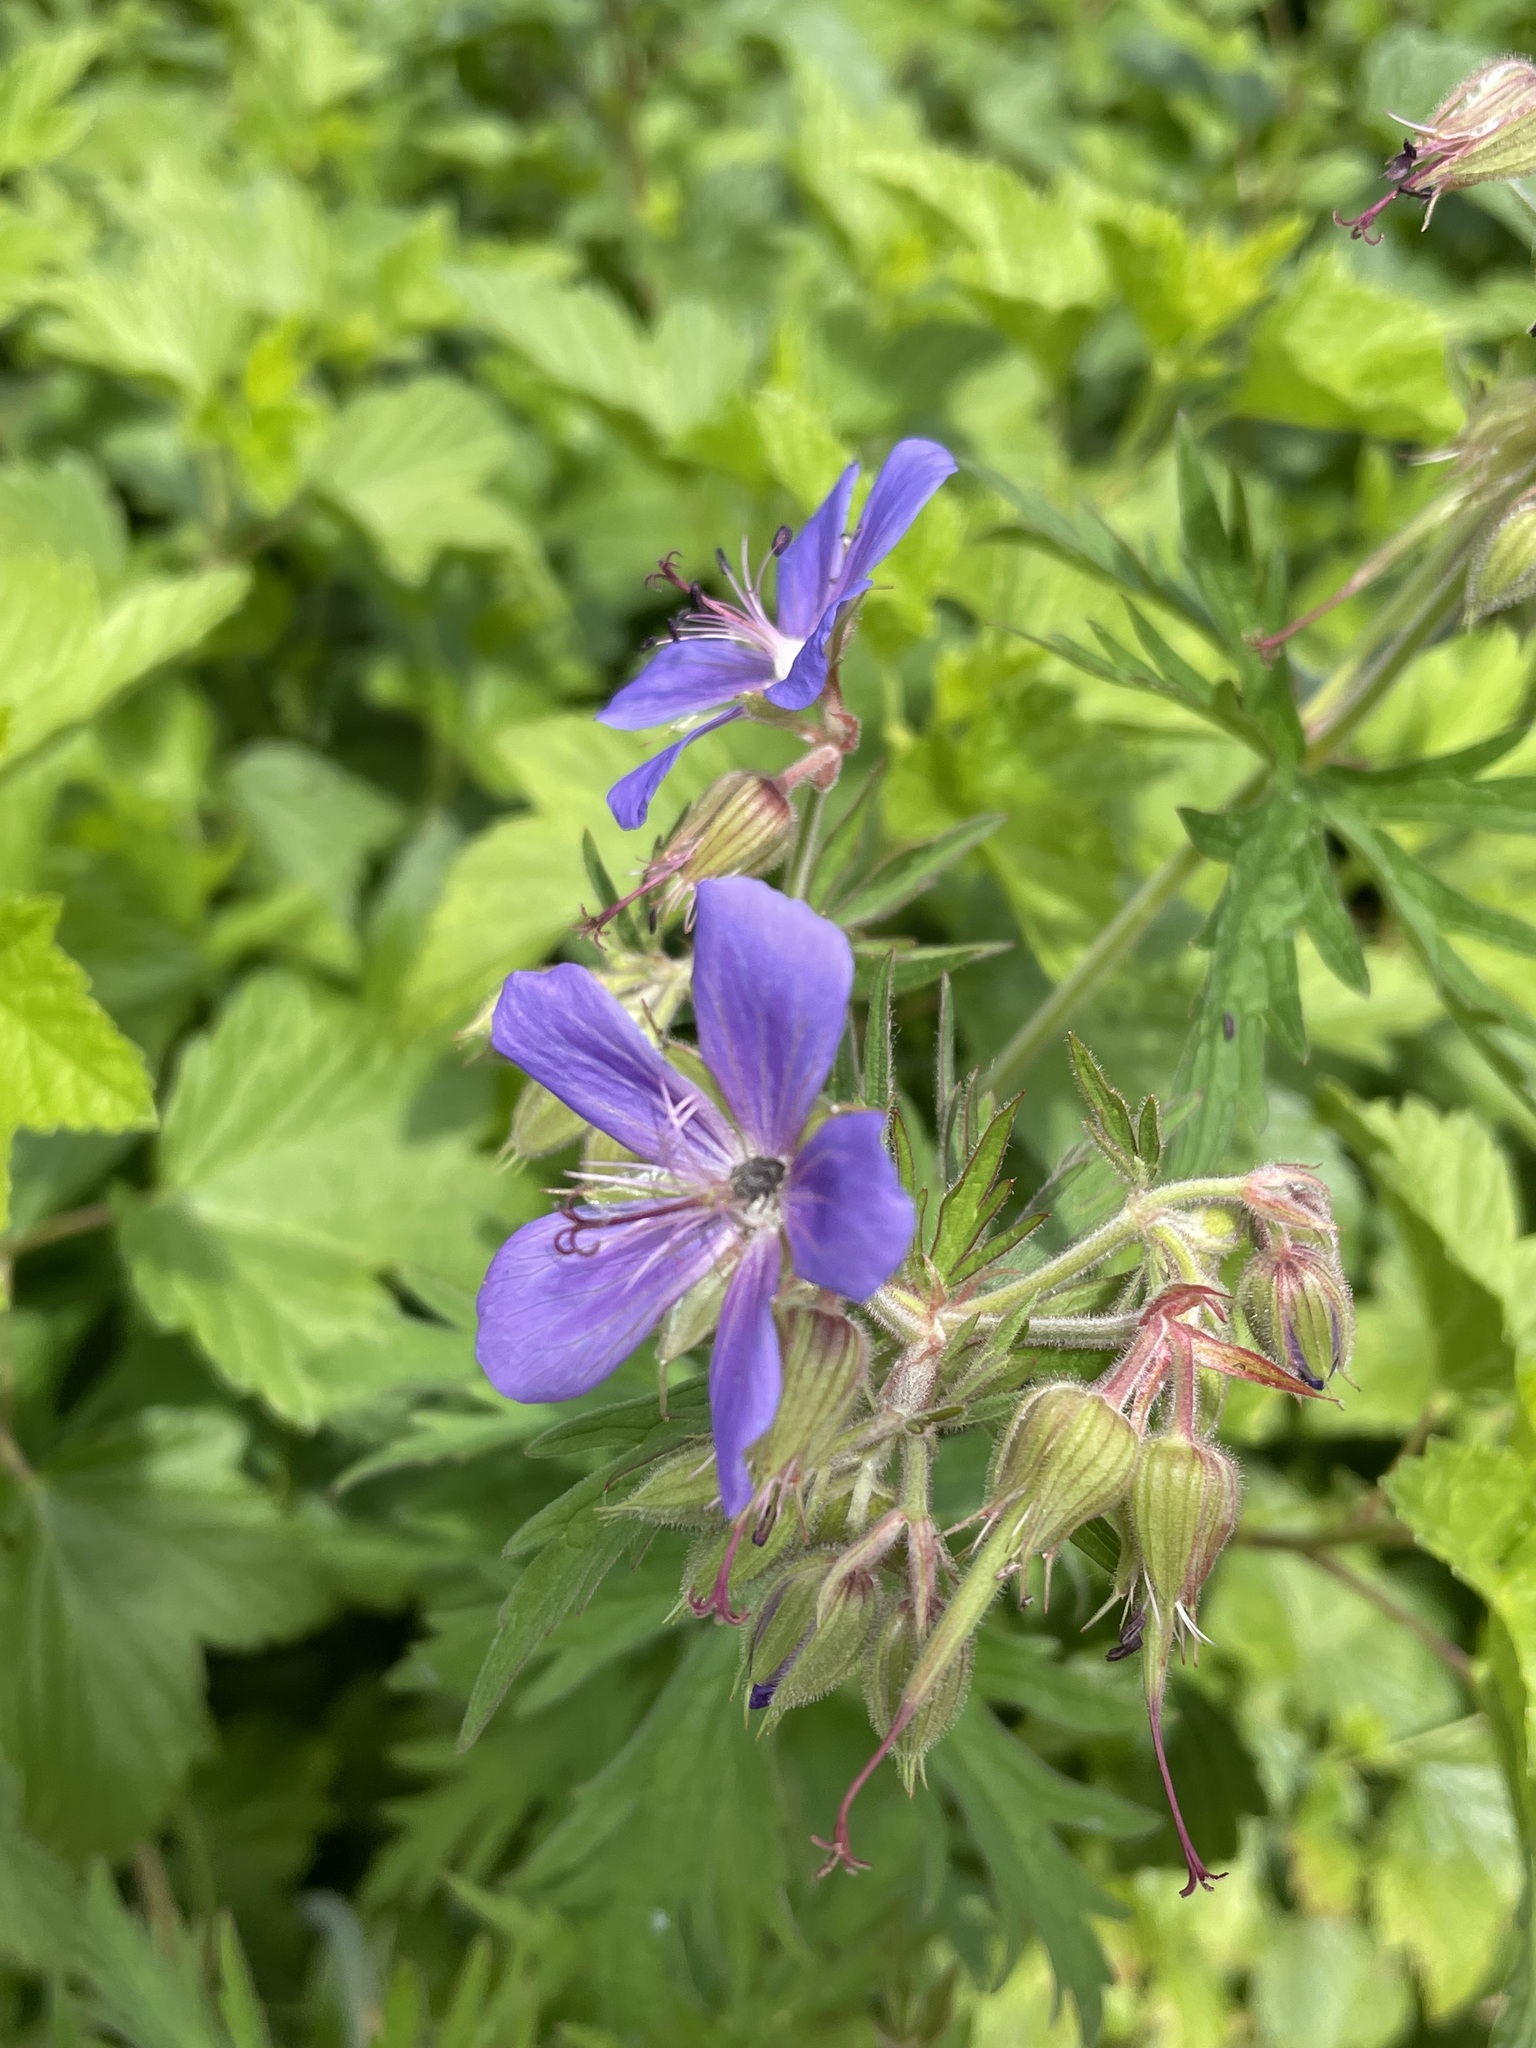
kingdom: Plantae
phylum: Tracheophyta
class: Magnoliopsida
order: Geraniales
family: Geraniaceae
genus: Geranium
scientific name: Geranium pratense
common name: Meadow crane's-bill
